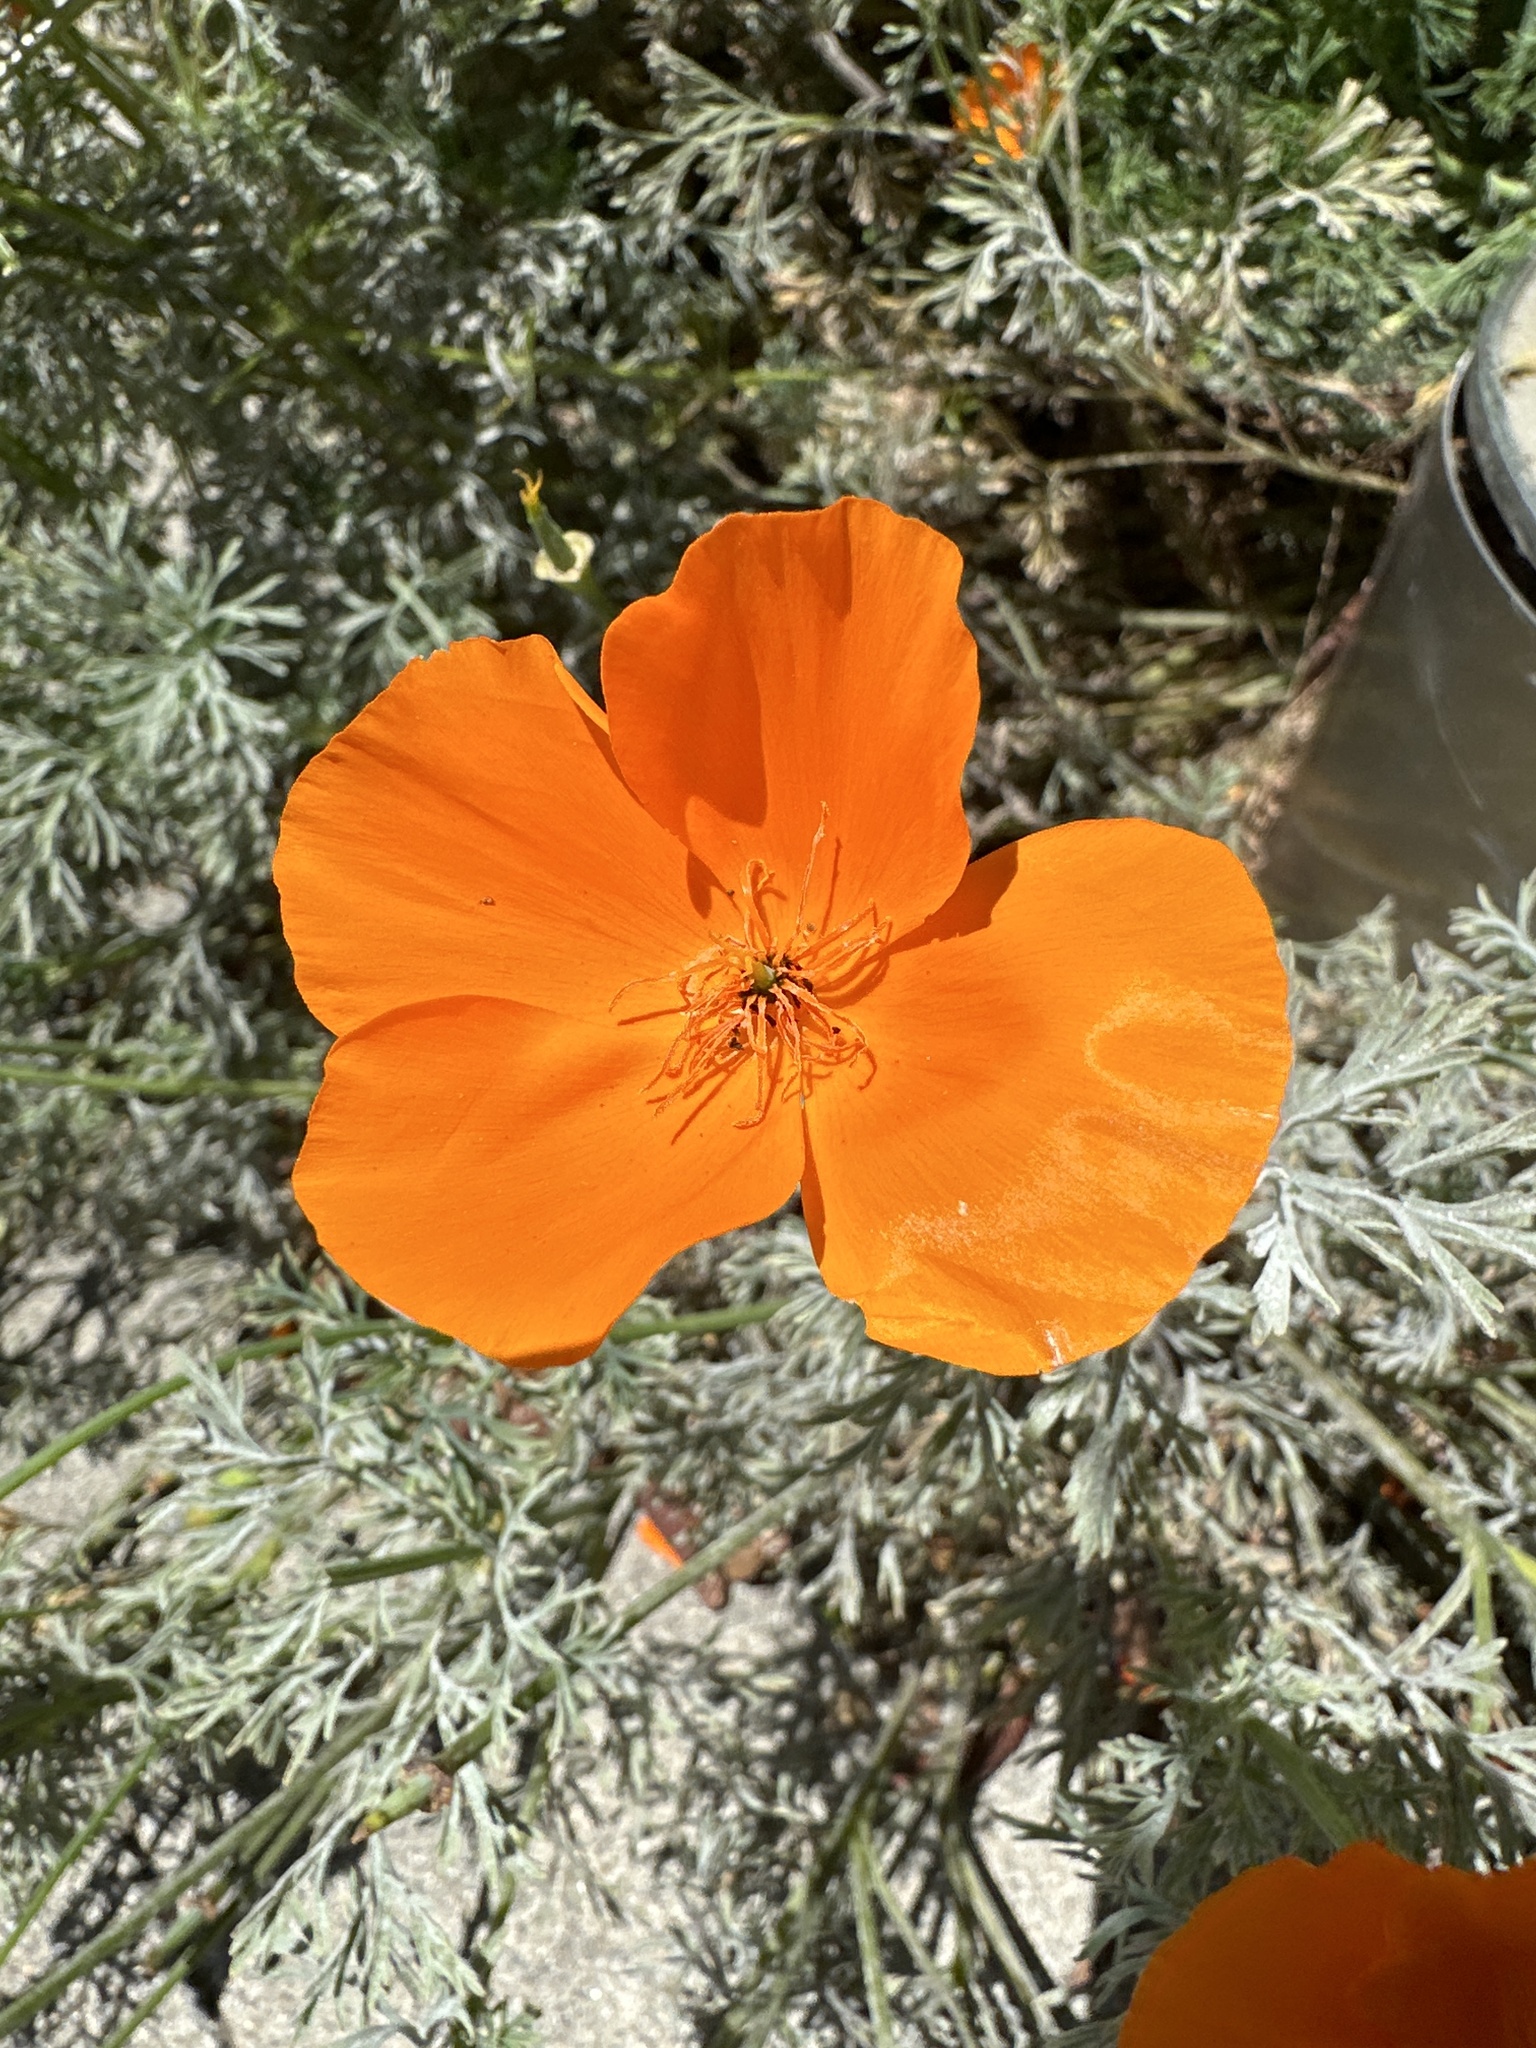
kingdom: Plantae
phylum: Tracheophyta
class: Magnoliopsida
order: Ranunculales
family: Papaveraceae
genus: Eschscholzia
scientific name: Eschscholzia californica
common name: California poppy
